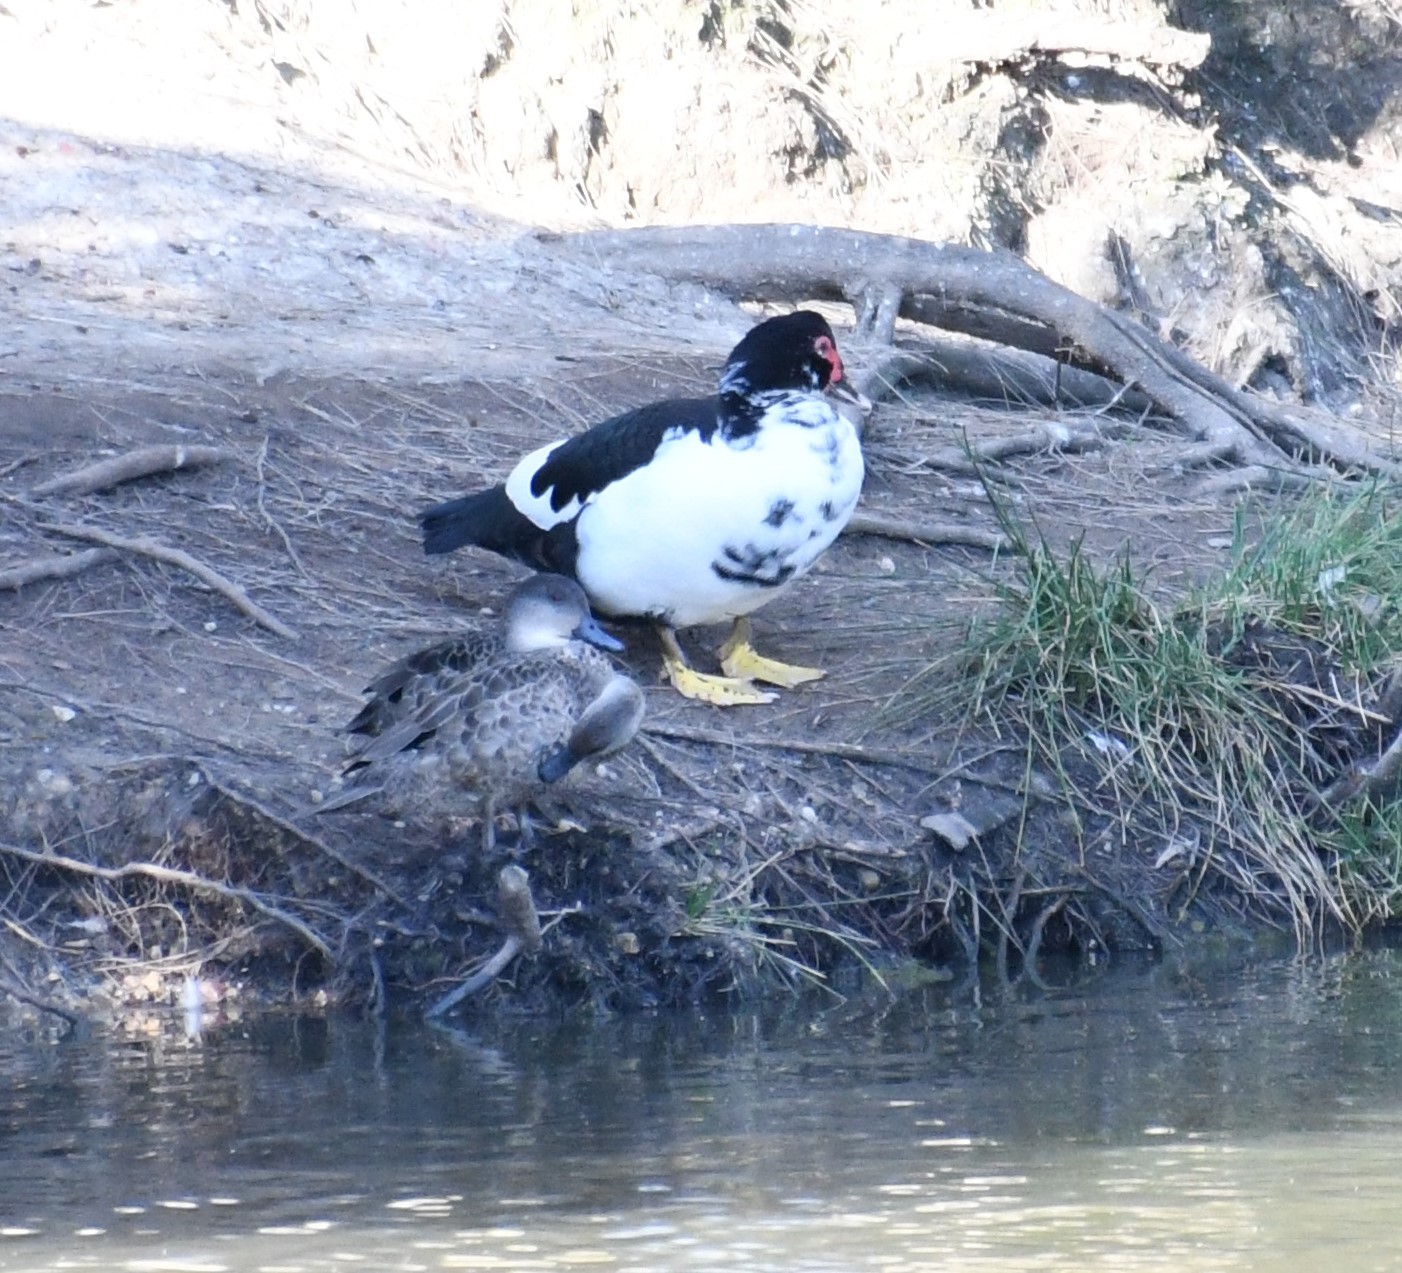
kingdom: Animalia
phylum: Chordata
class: Aves
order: Anseriformes
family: Anatidae
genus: Cairina
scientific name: Cairina moschata
